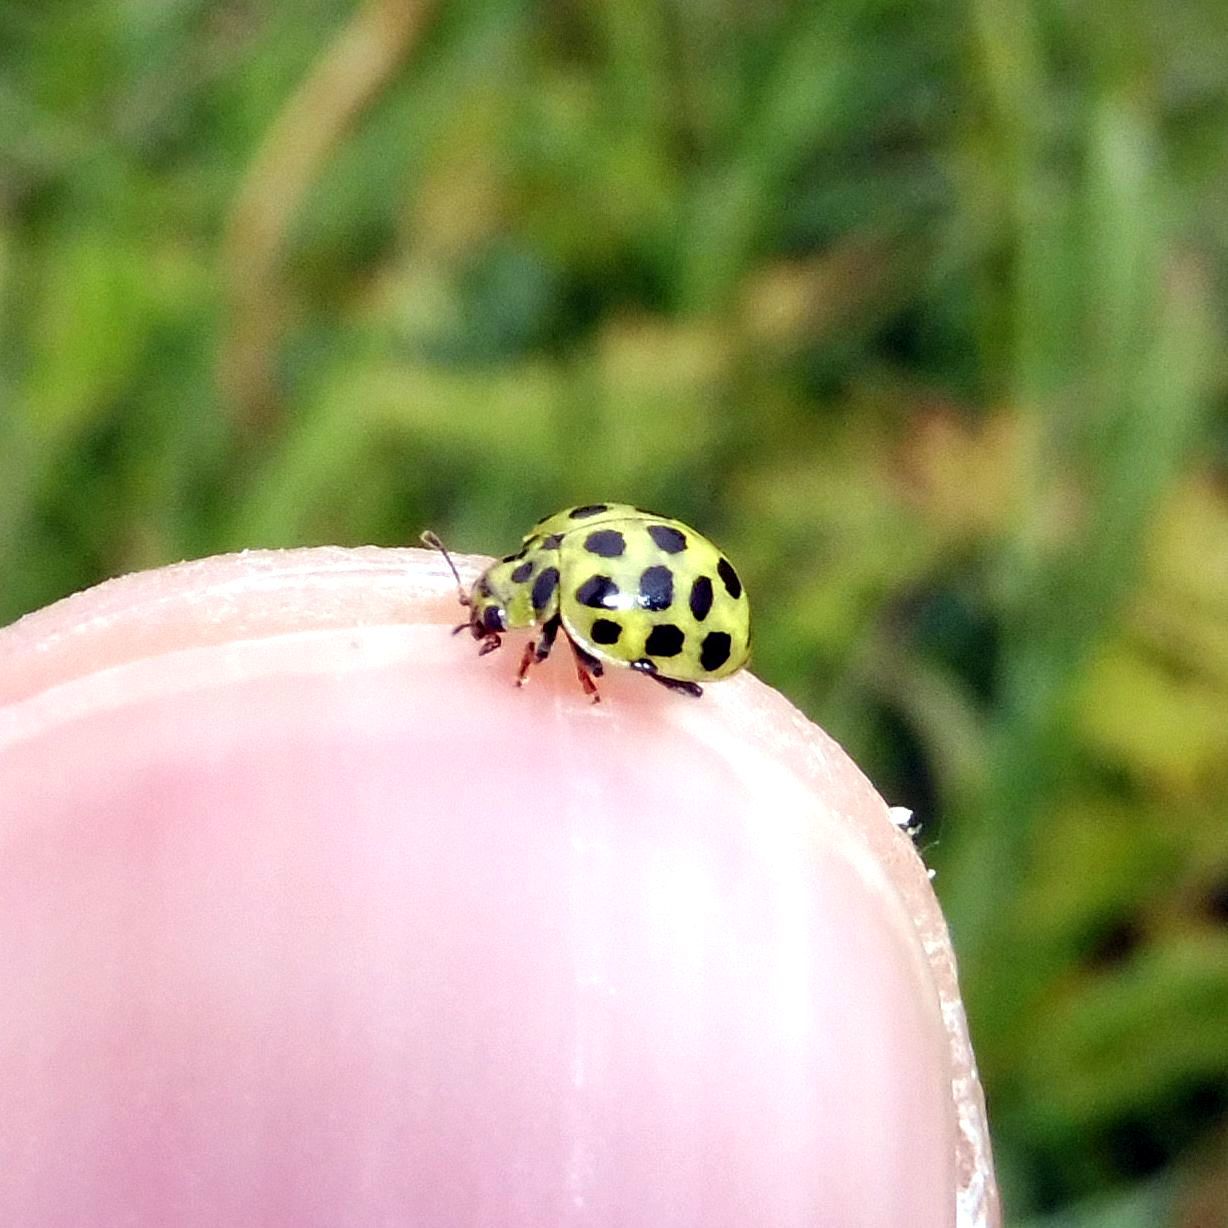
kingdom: Animalia
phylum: Arthropoda
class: Insecta
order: Coleoptera
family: Coccinellidae
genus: Psyllobora
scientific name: Psyllobora vigintiduopunctata
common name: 22-spot ladybird
